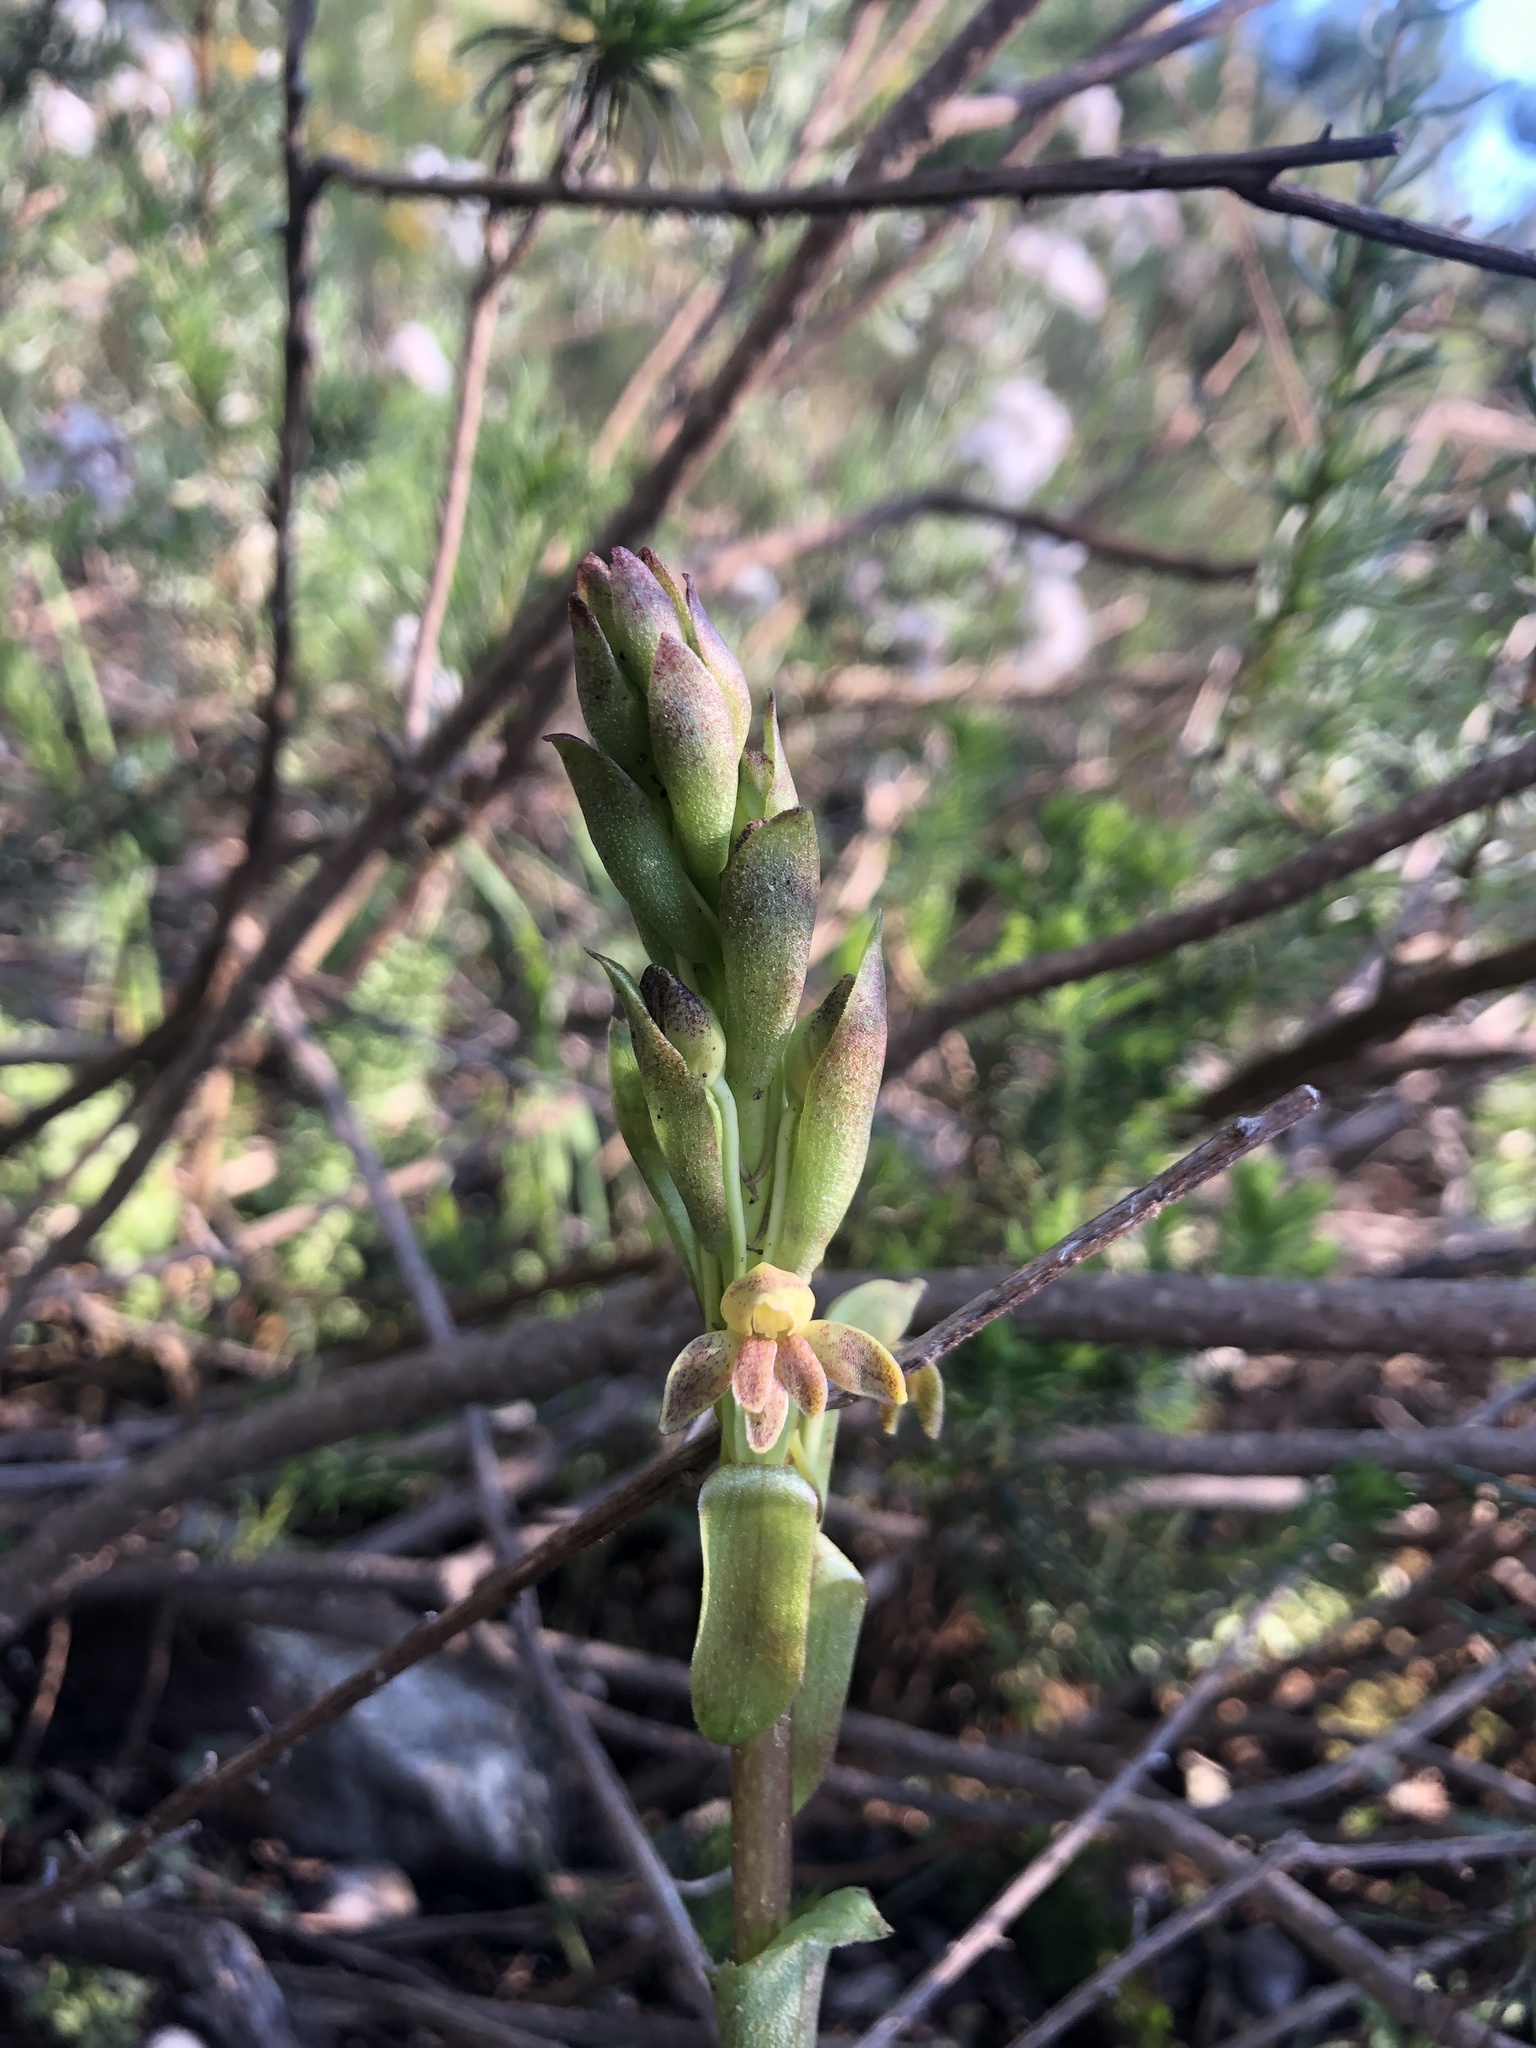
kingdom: Plantae
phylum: Tracheophyta
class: Liliopsida
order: Asparagales
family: Orchidaceae
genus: Satyrium
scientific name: Satyrium bicorne
